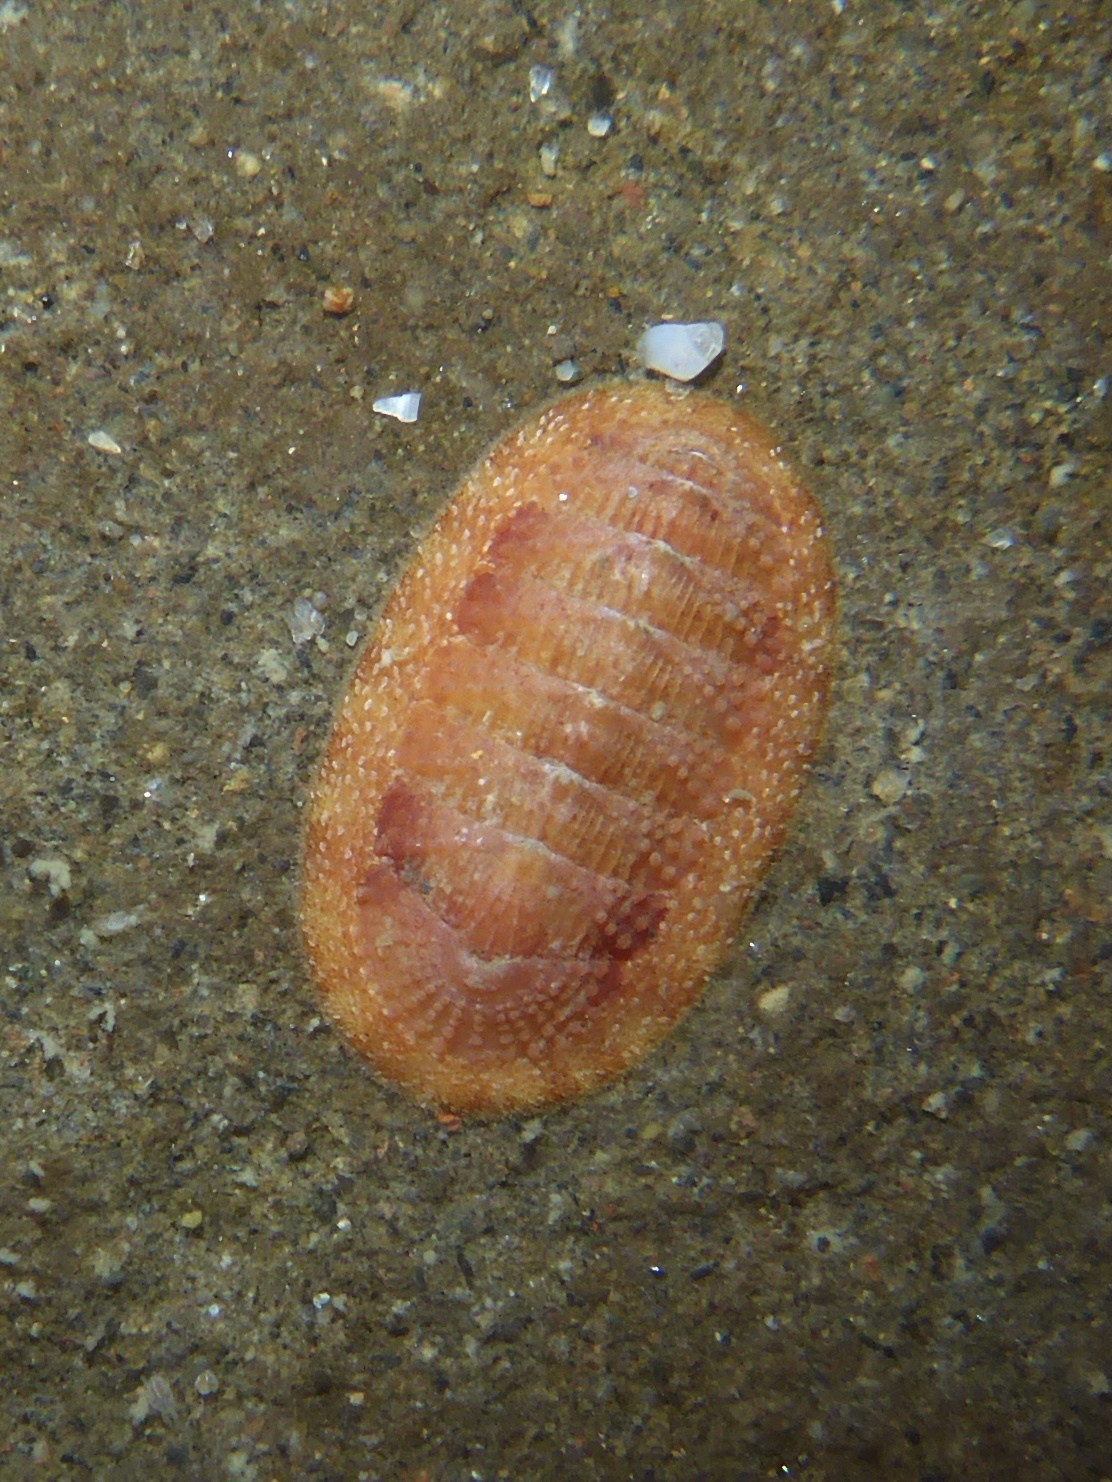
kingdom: Animalia
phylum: Mollusca
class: Polyplacophora
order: Chitonida
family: Ischnochitonidae
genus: Lepidozona
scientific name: Lepidozona mertensii
